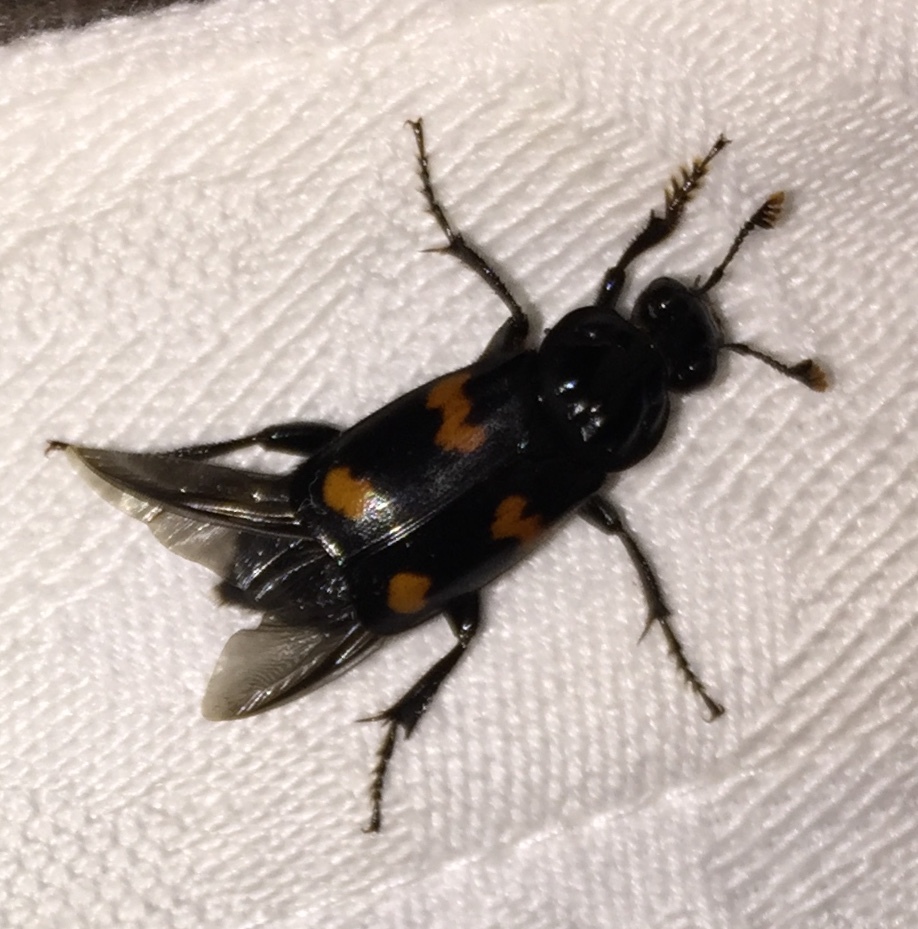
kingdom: Animalia
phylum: Arthropoda
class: Insecta
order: Coleoptera
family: Staphylinidae
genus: Nicrophorus
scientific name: Nicrophorus orbicollis
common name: Roundneck sexton beetle
